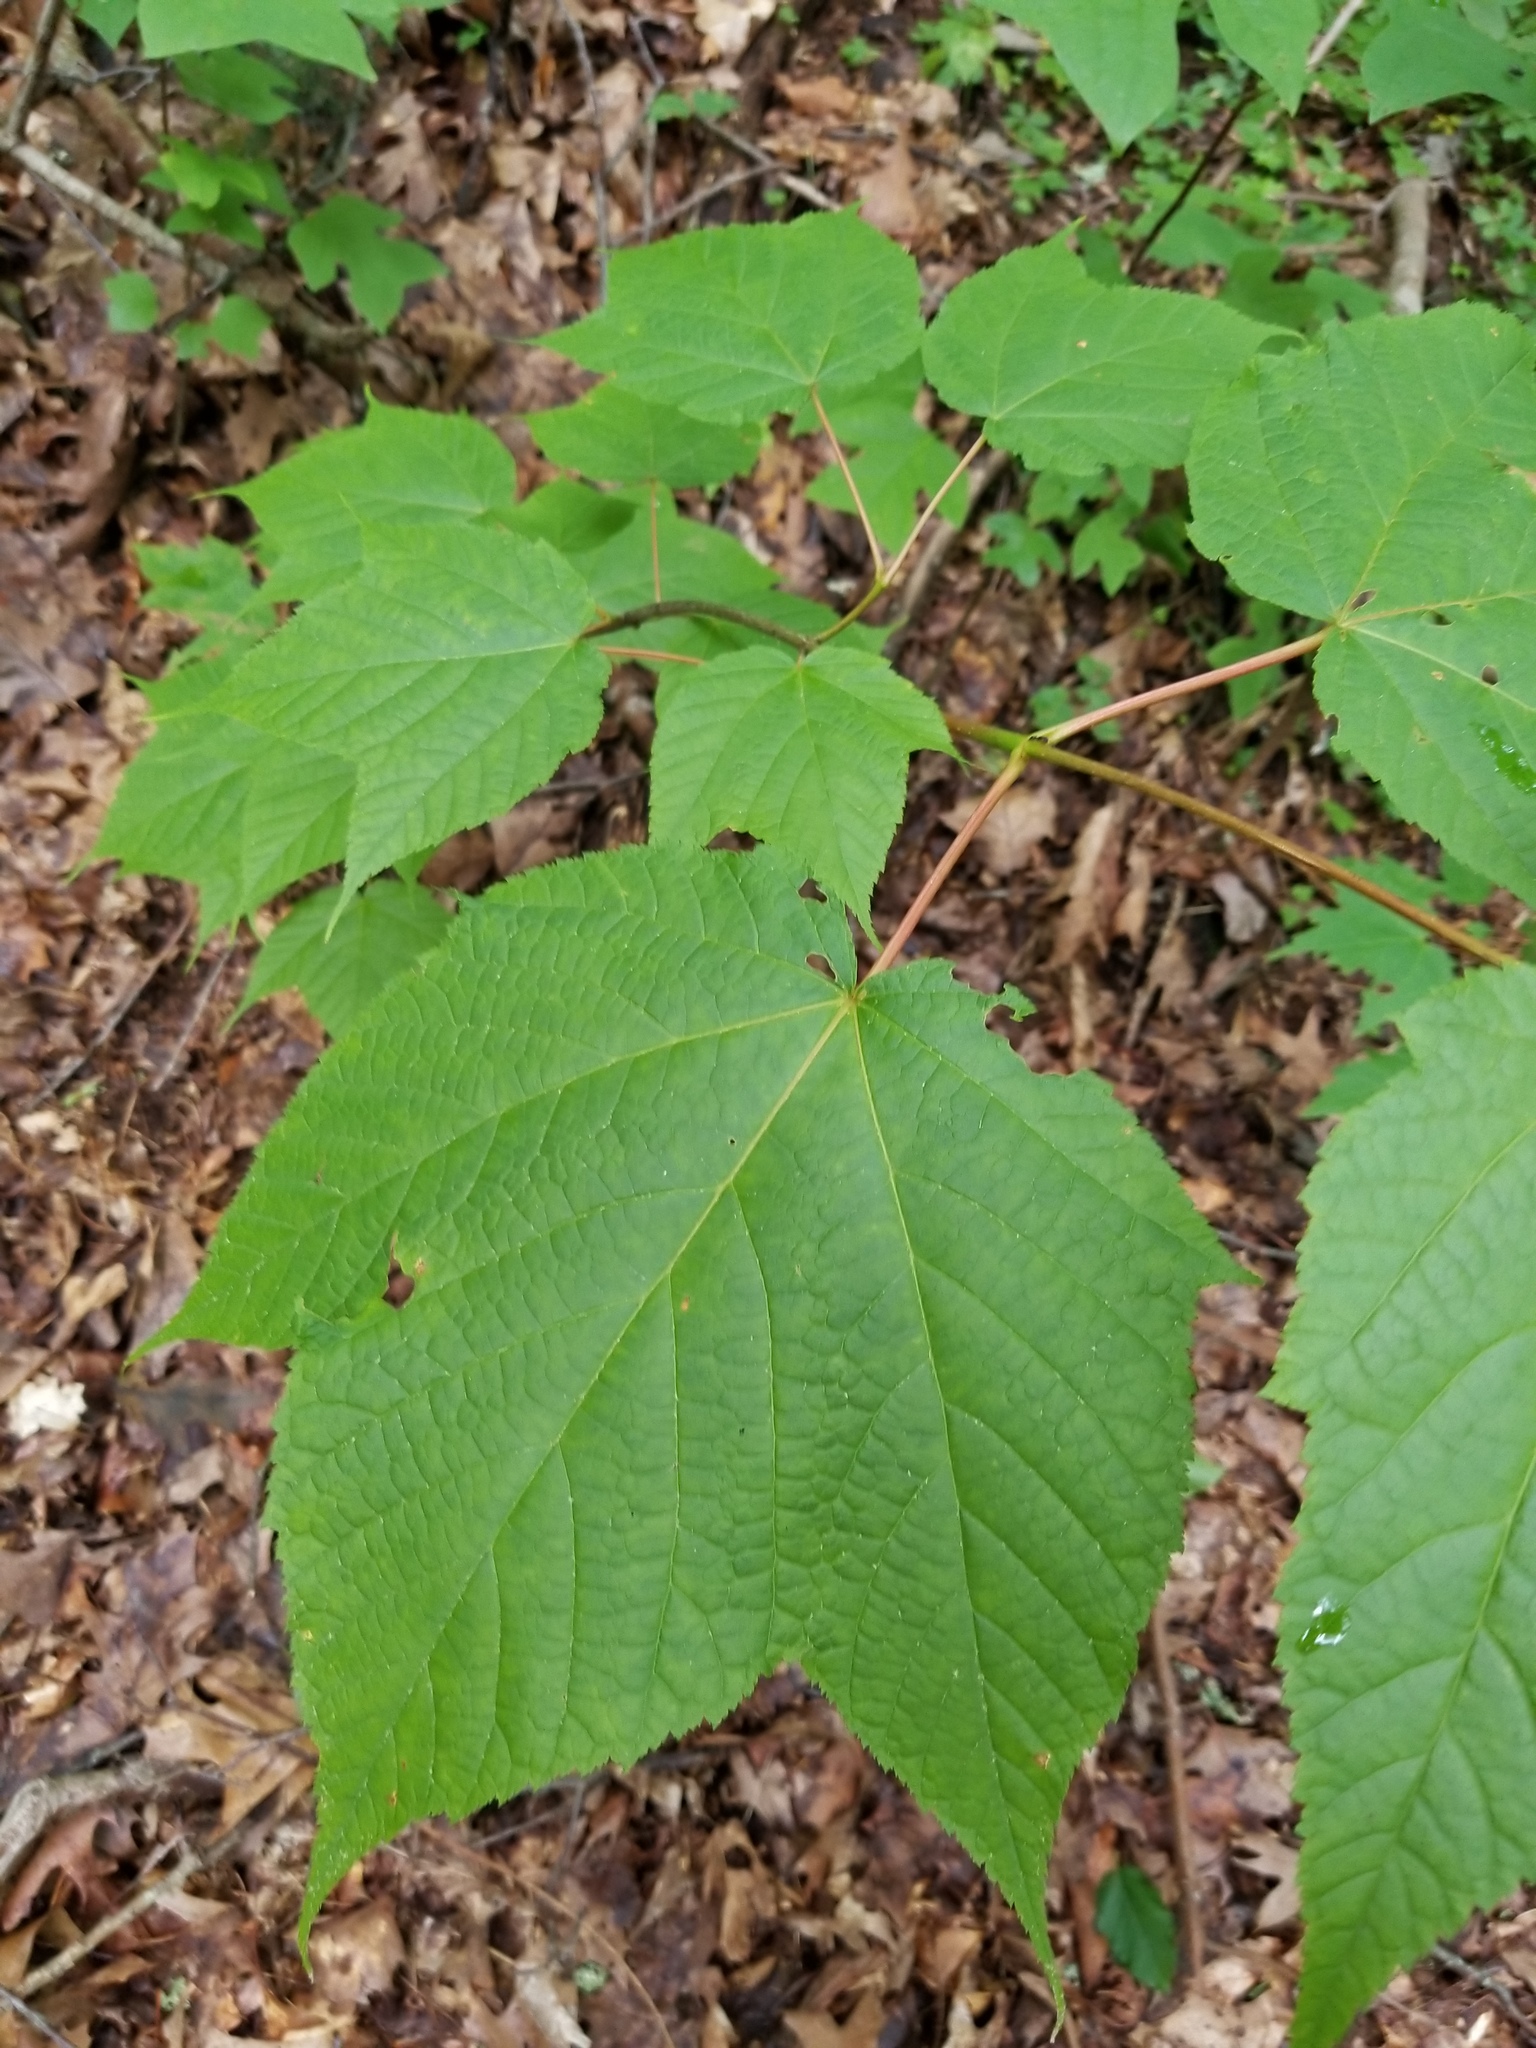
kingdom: Plantae
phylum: Tracheophyta
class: Magnoliopsida
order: Sapindales
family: Sapindaceae
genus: Acer
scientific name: Acer pensylvanicum
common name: Moosewood
